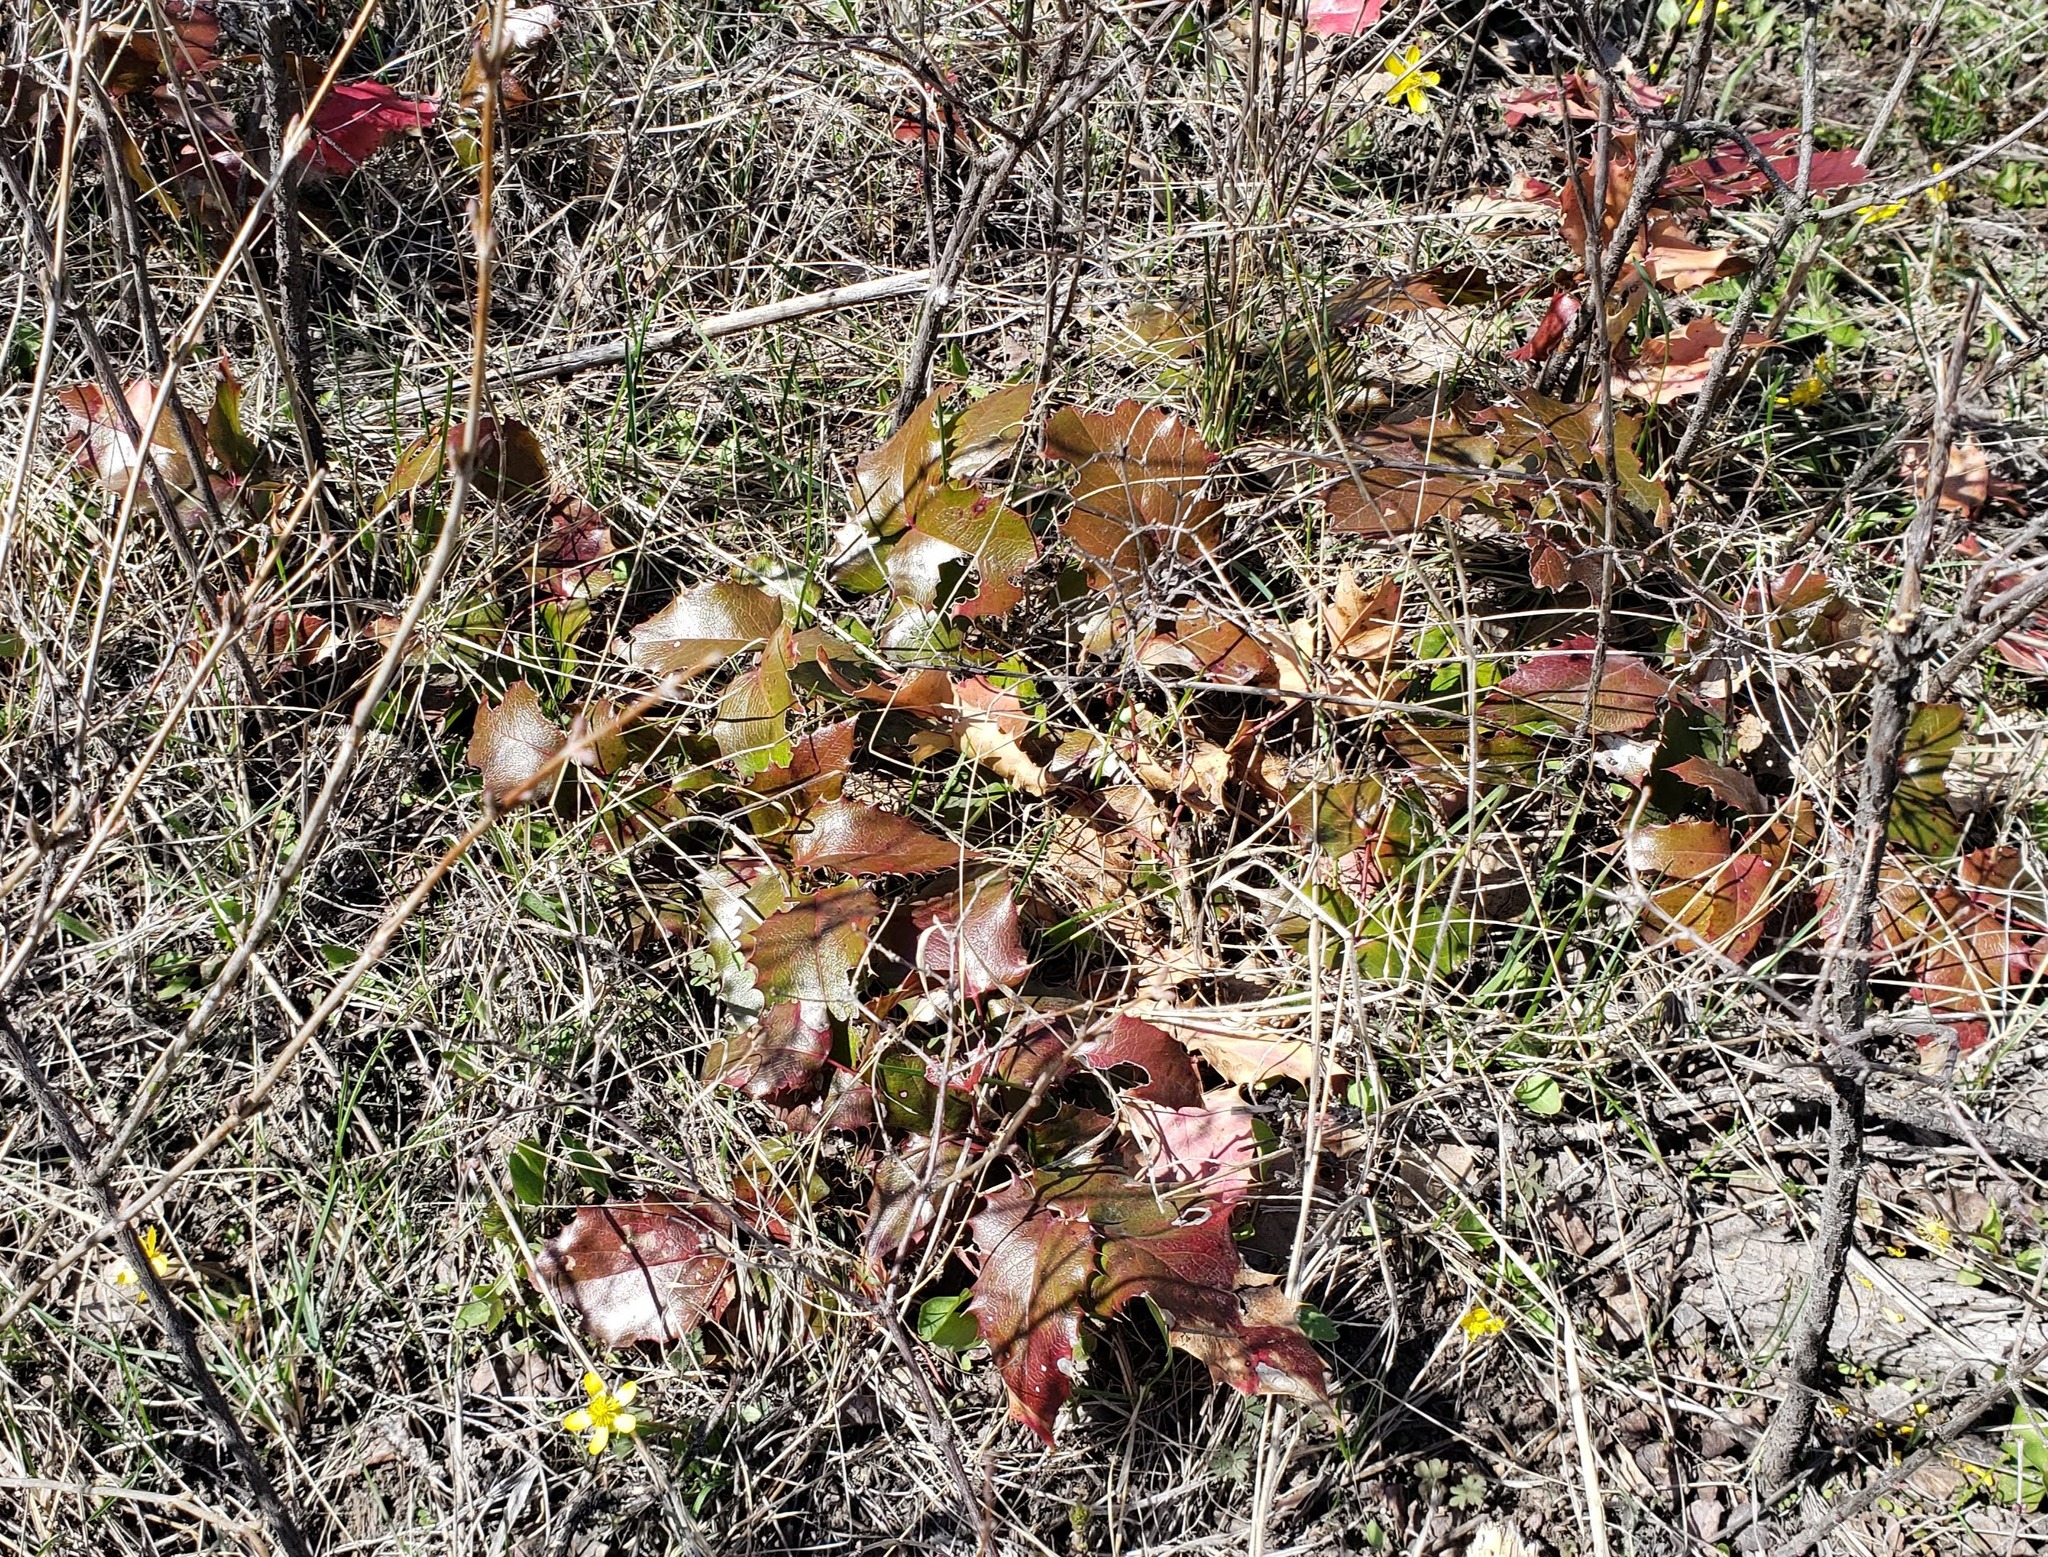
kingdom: Plantae
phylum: Tracheophyta
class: Magnoliopsida
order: Ranunculales
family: Berberidaceae
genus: Mahonia
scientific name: Mahonia aquifolium
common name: Oregon-grape
